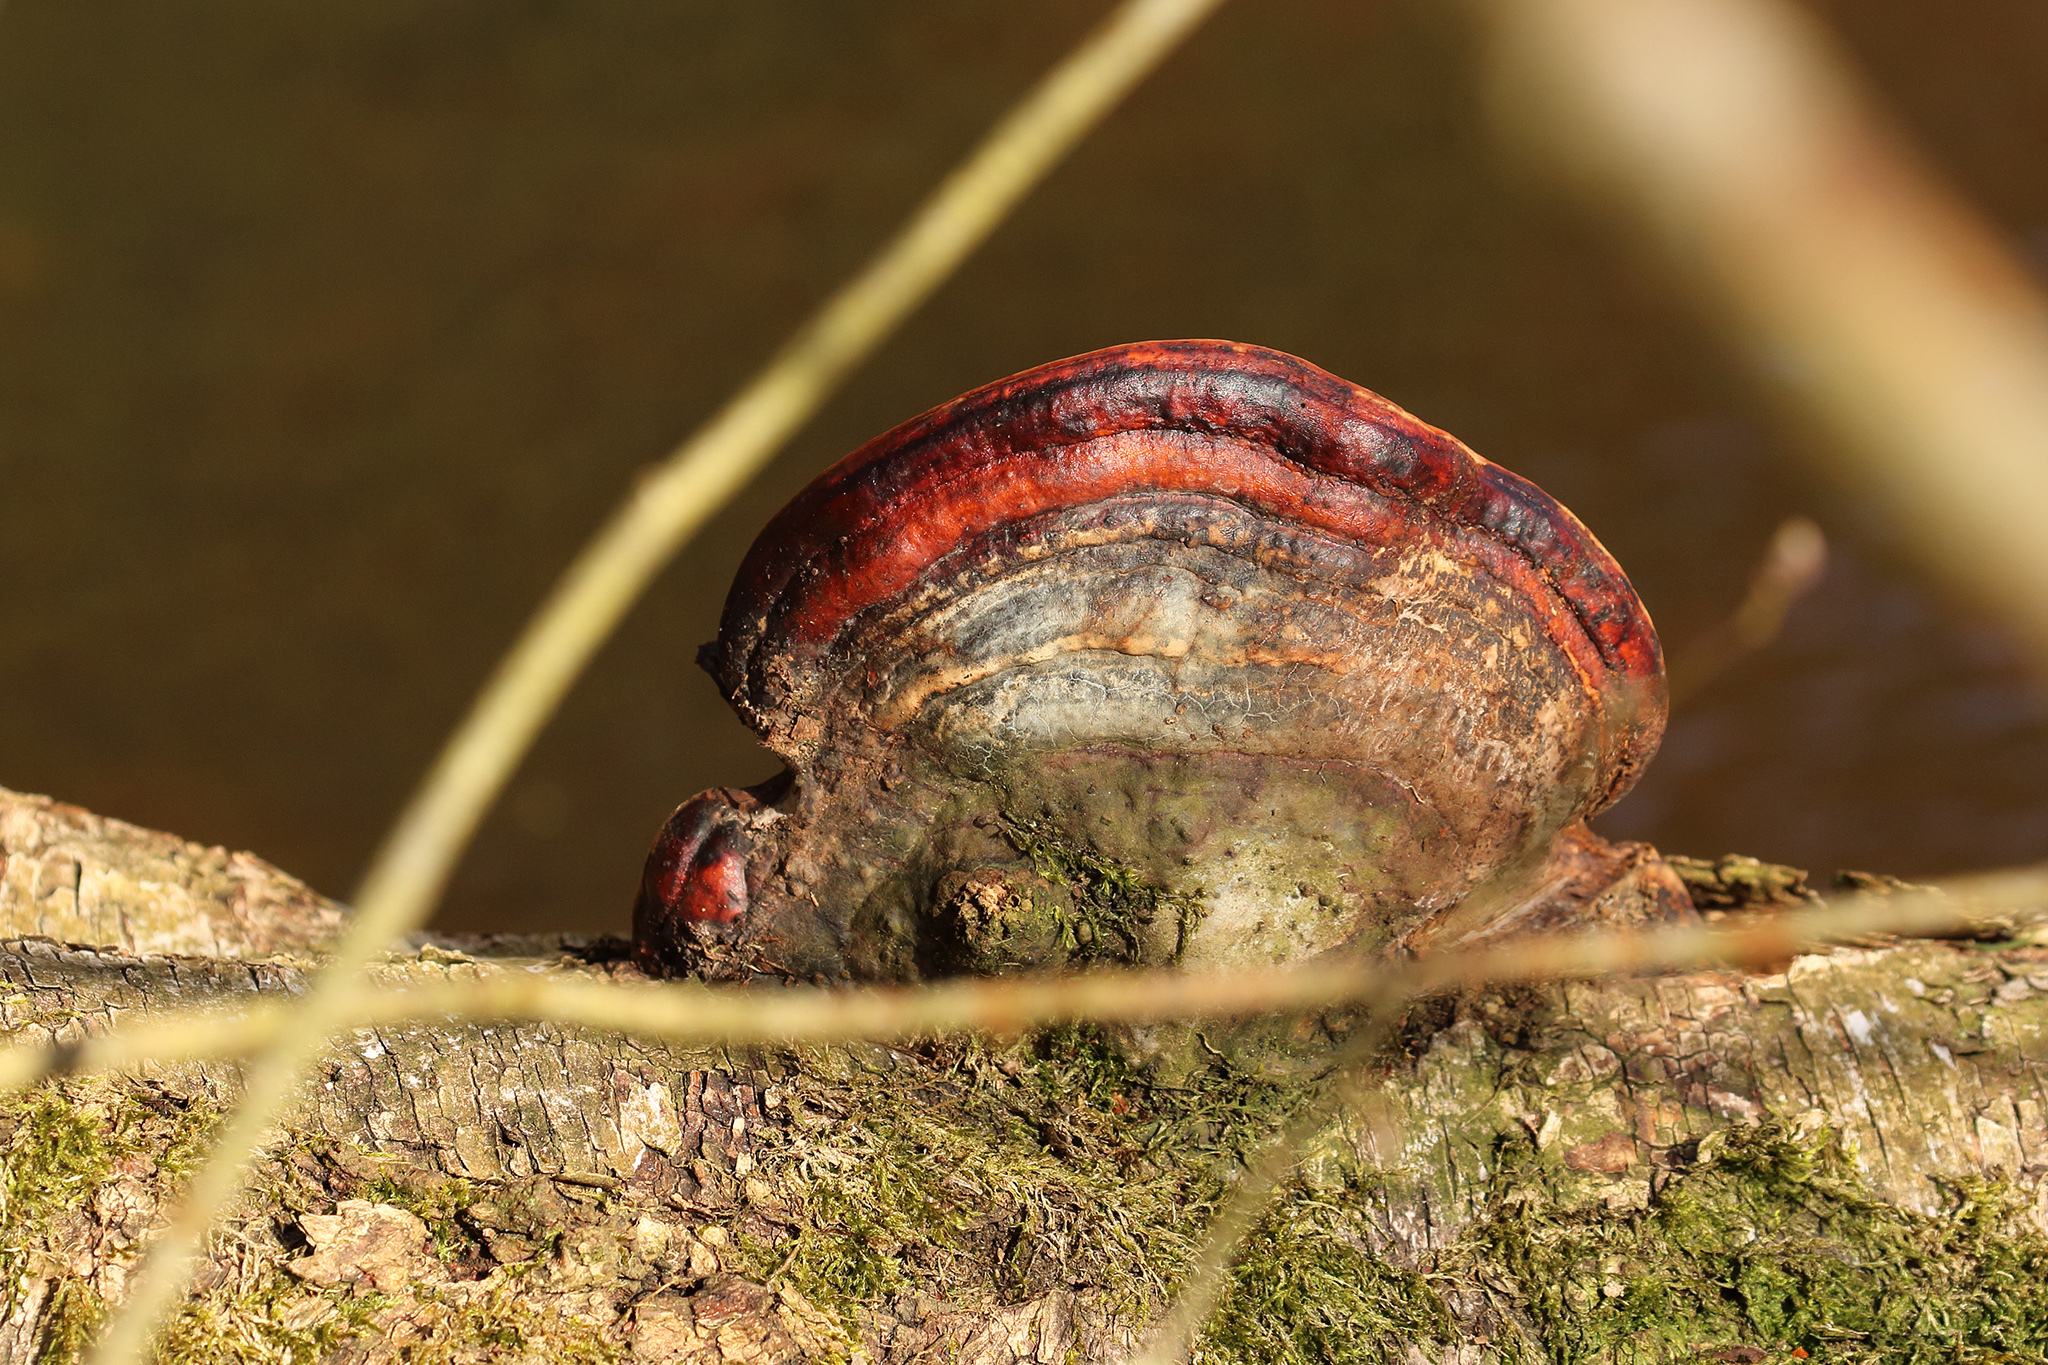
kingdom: Fungi
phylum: Basidiomycota
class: Agaricomycetes
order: Polyporales
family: Fomitopsidaceae
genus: Fomitopsis
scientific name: Fomitopsis pinicola
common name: Red-belted bracket
